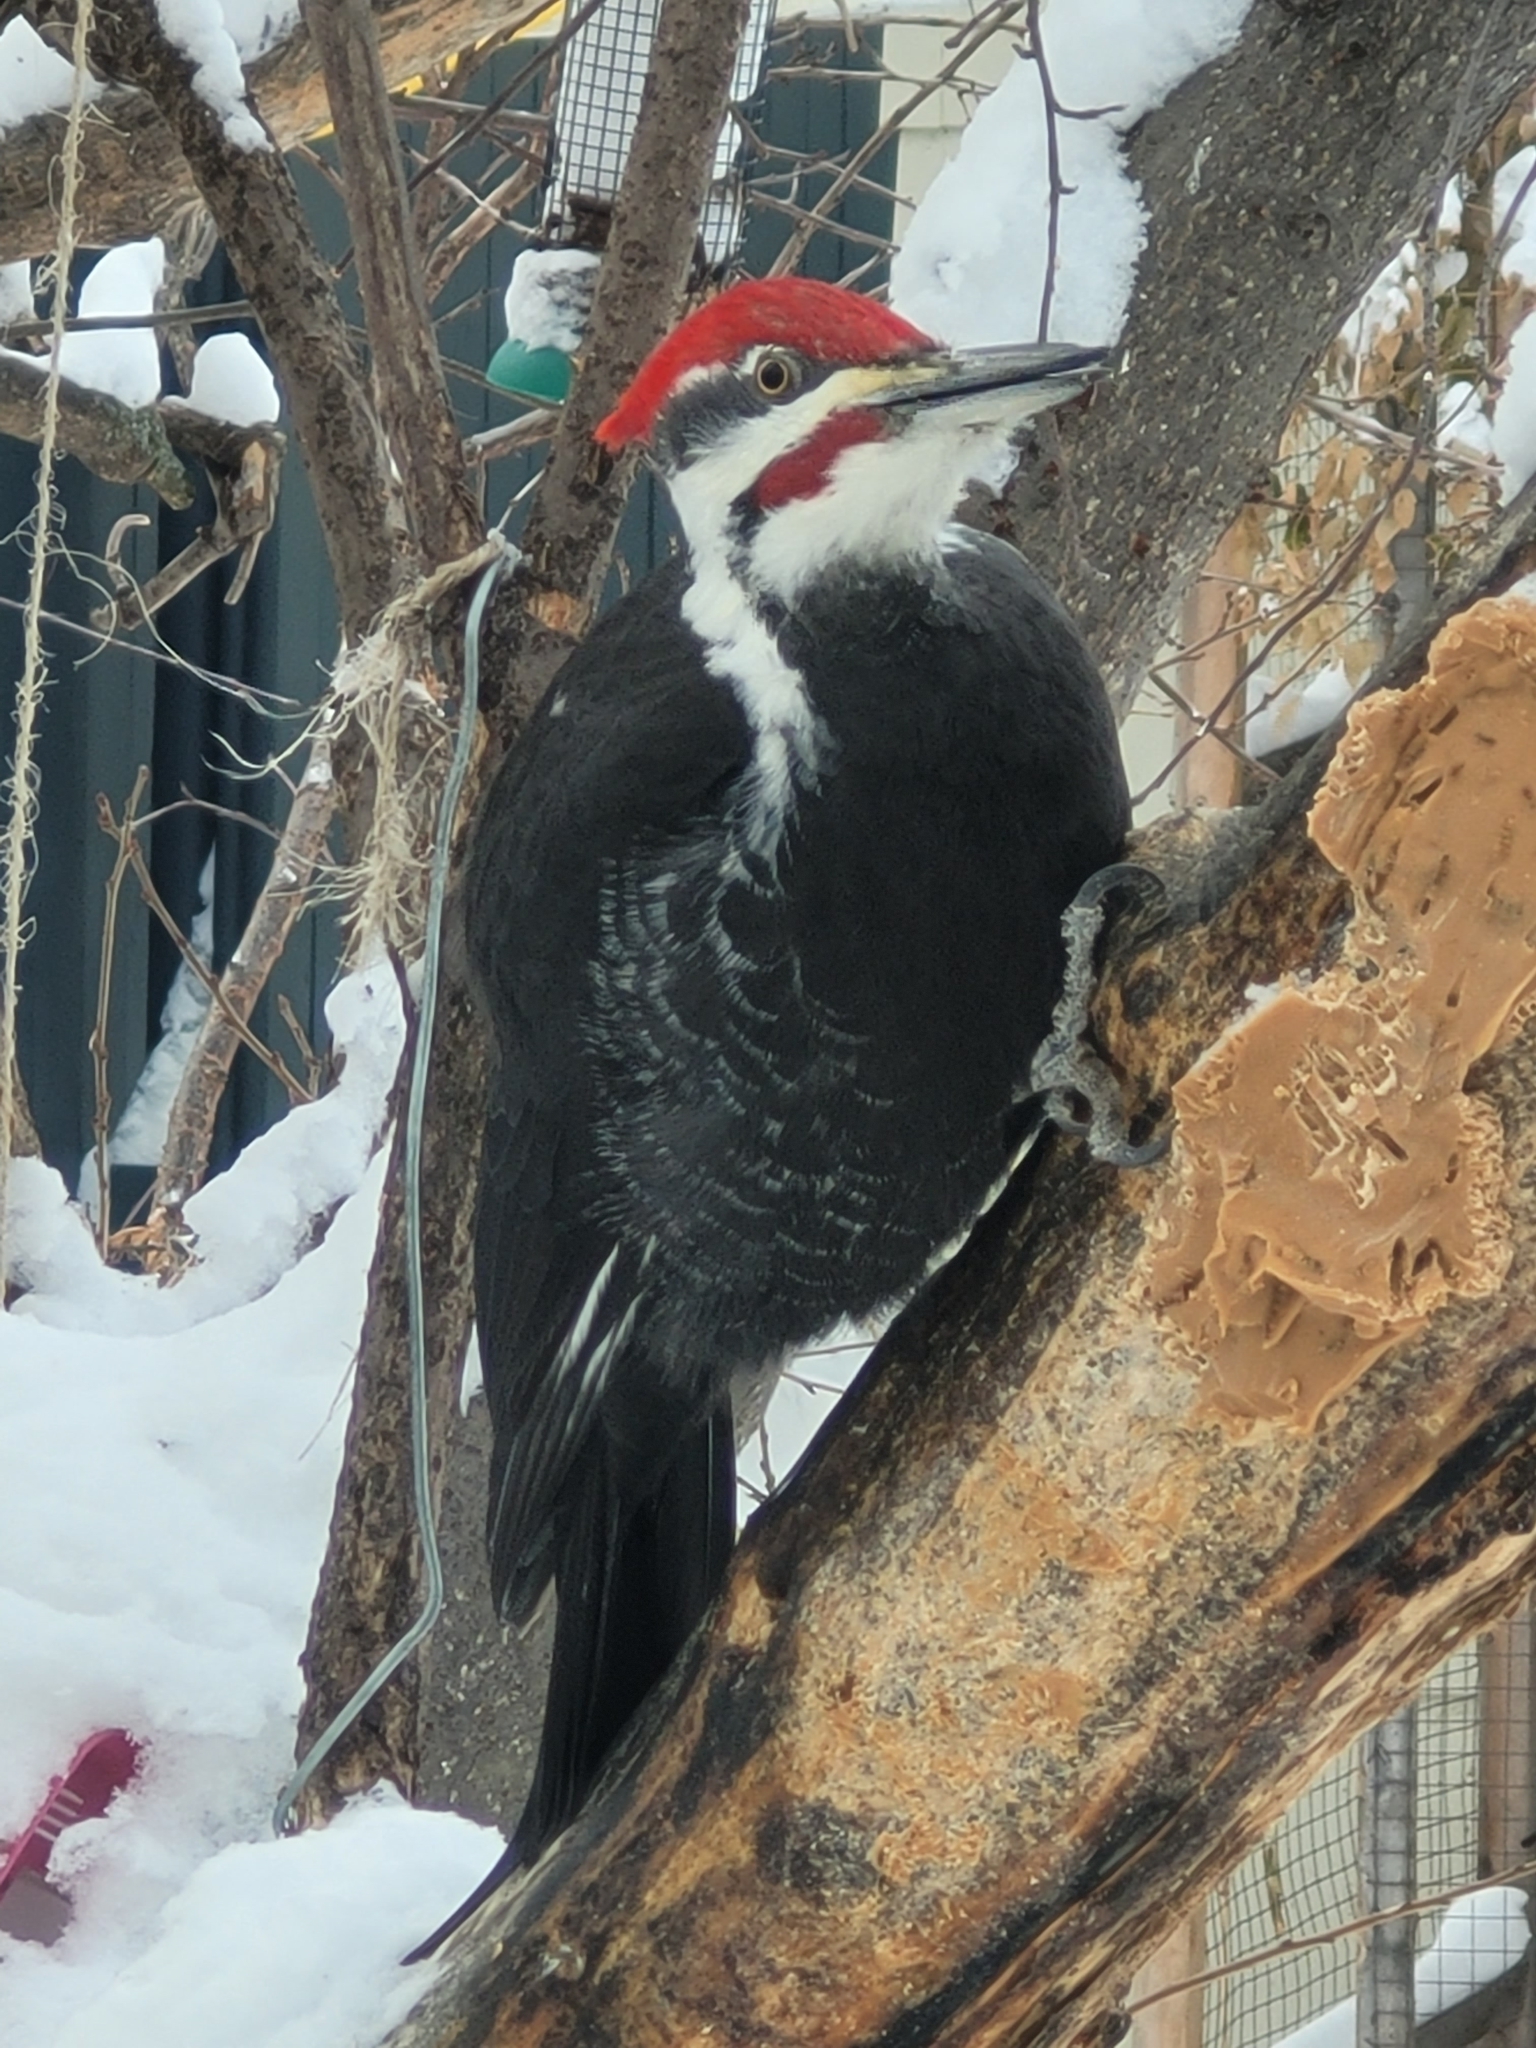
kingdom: Animalia
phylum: Chordata
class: Aves
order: Piciformes
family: Picidae
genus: Dryocopus
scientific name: Dryocopus pileatus
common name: Pileated woodpecker
